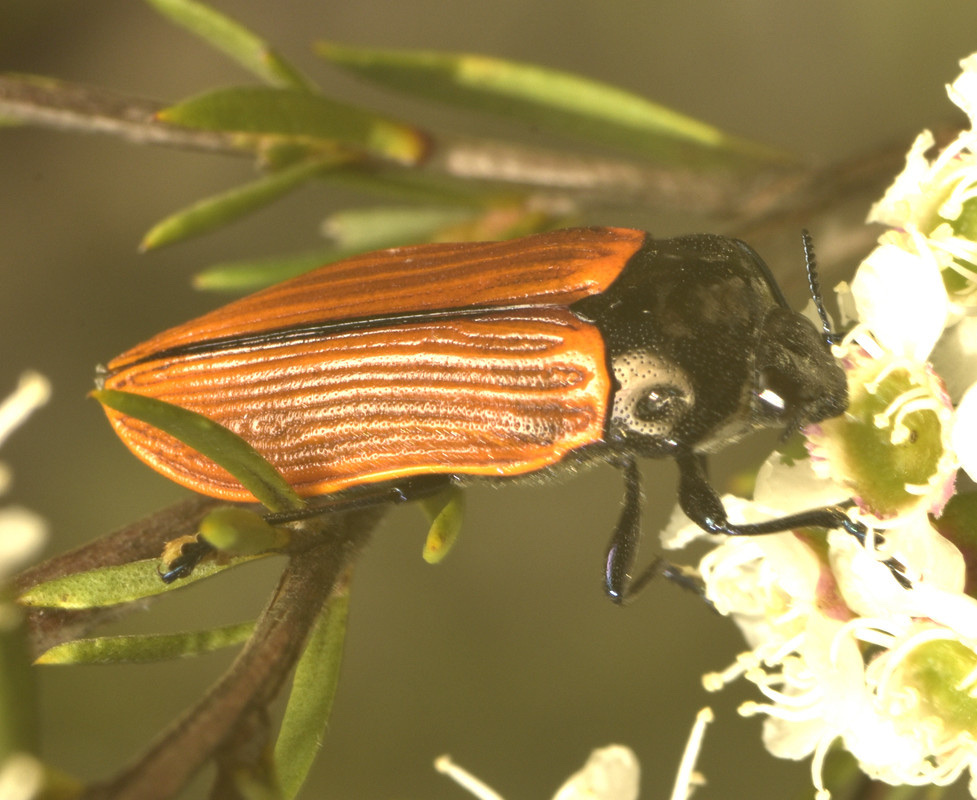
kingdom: Animalia
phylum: Arthropoda
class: Insecta
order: Coleoptera
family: Buprestidae
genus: Castiarina
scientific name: Castiarina rufipennis
